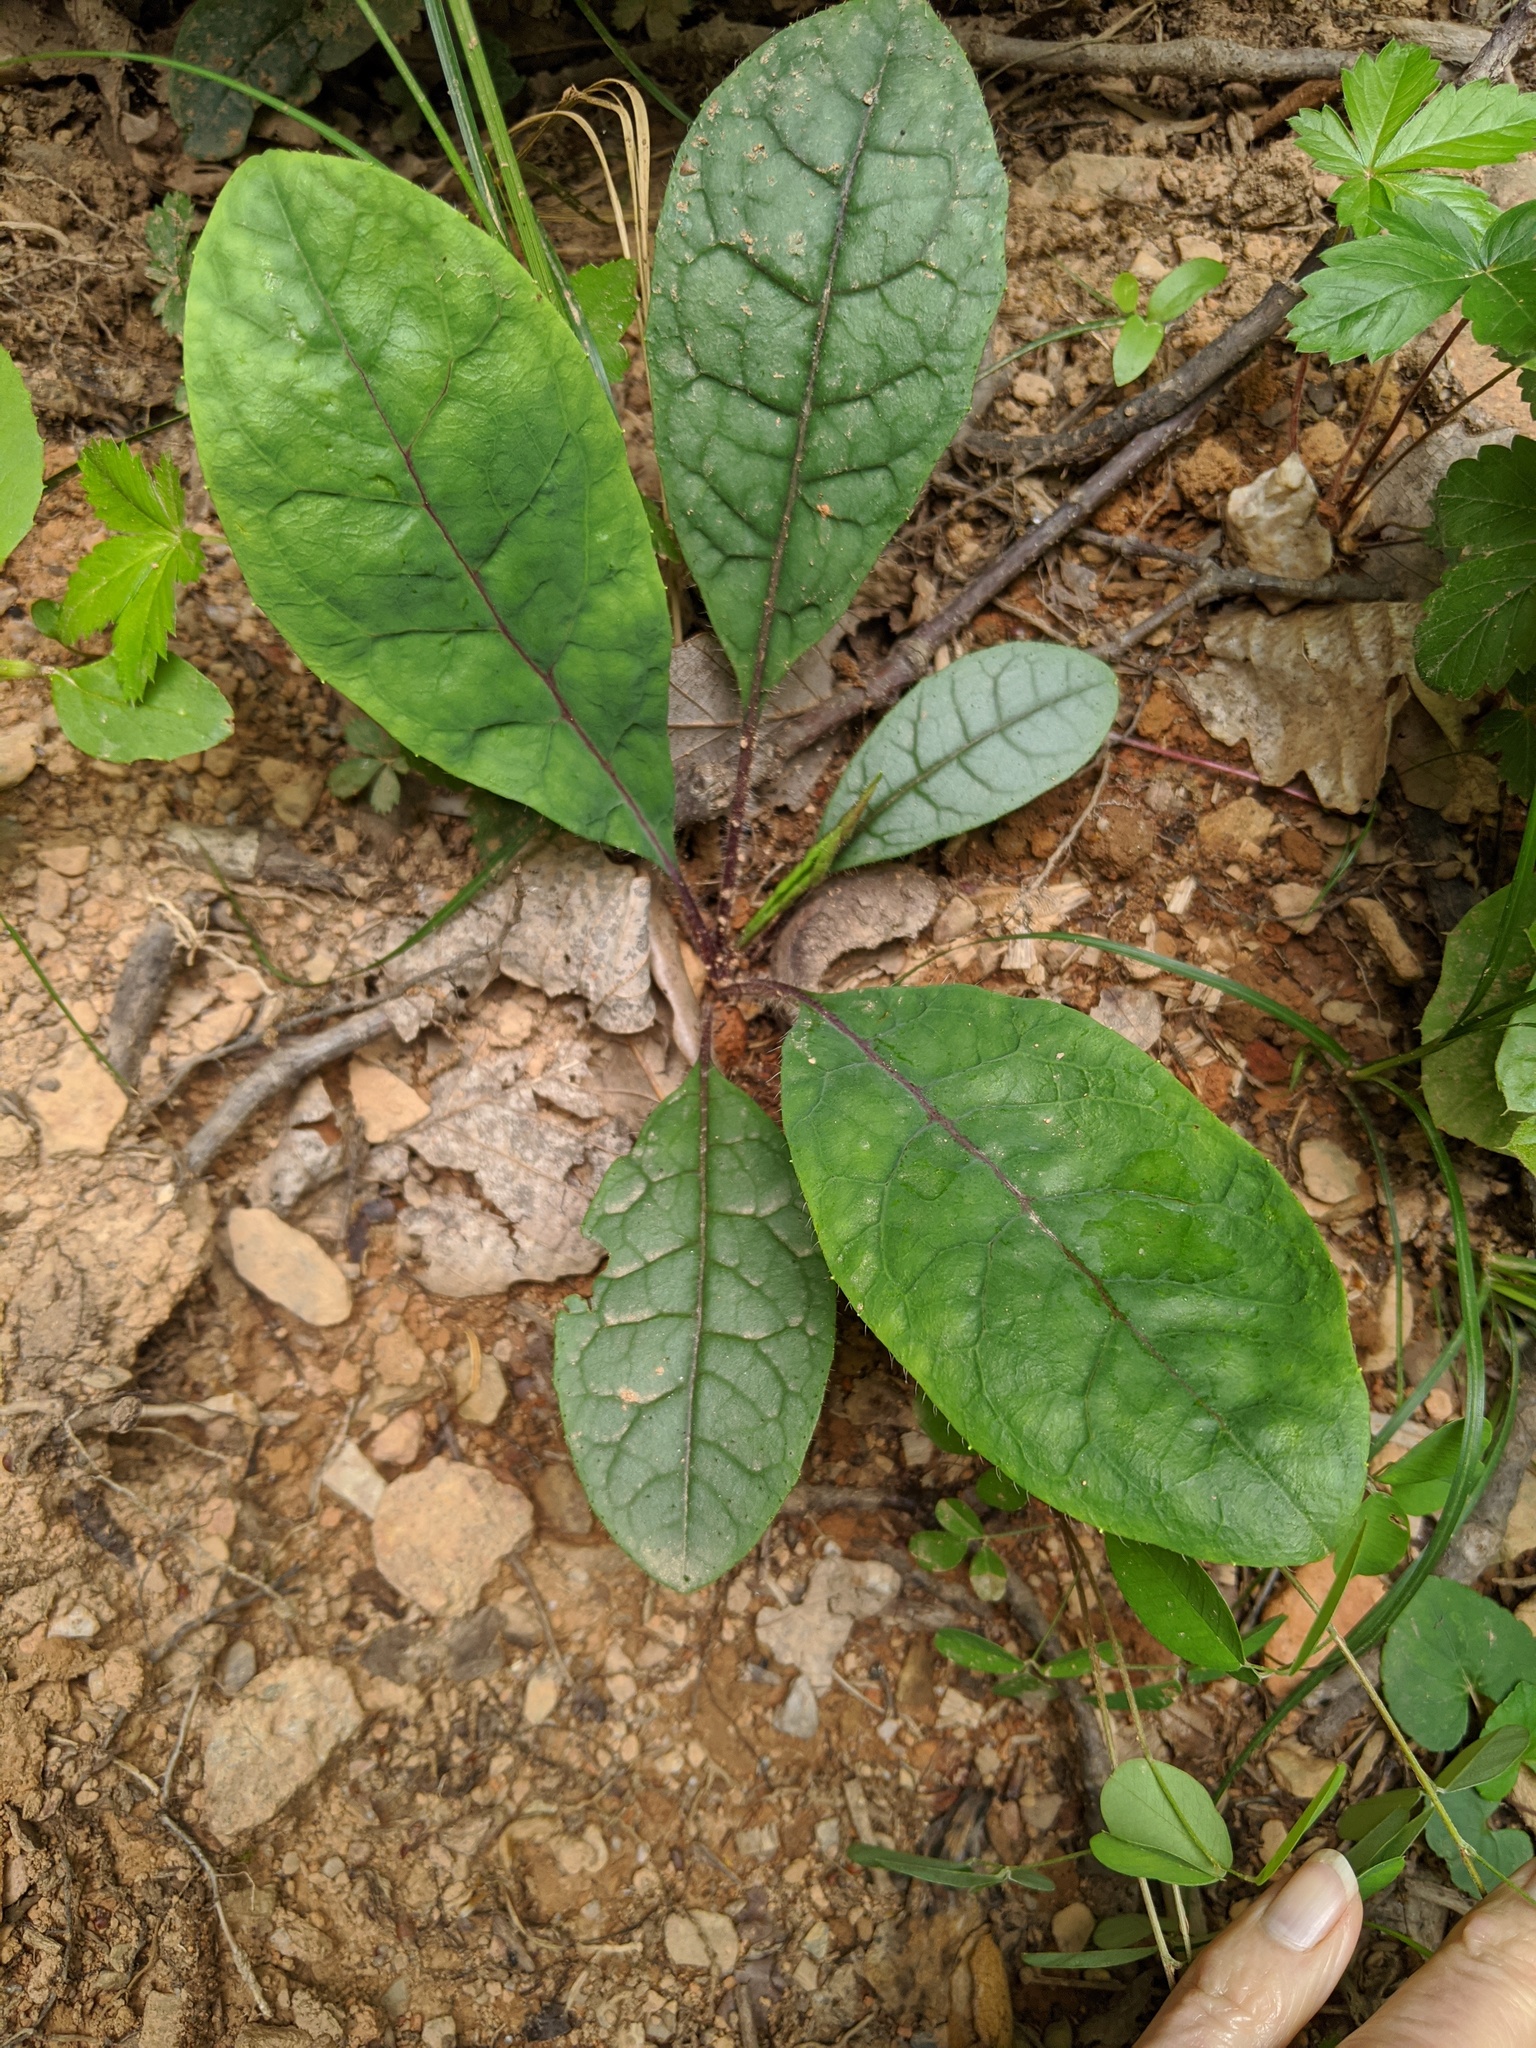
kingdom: Plantae
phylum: Tracheophyta
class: Magnoliopsida
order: Asterales
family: Asteraceae
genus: Hieracium
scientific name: Hieracium venosum
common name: Rattlesnake hawkweed
